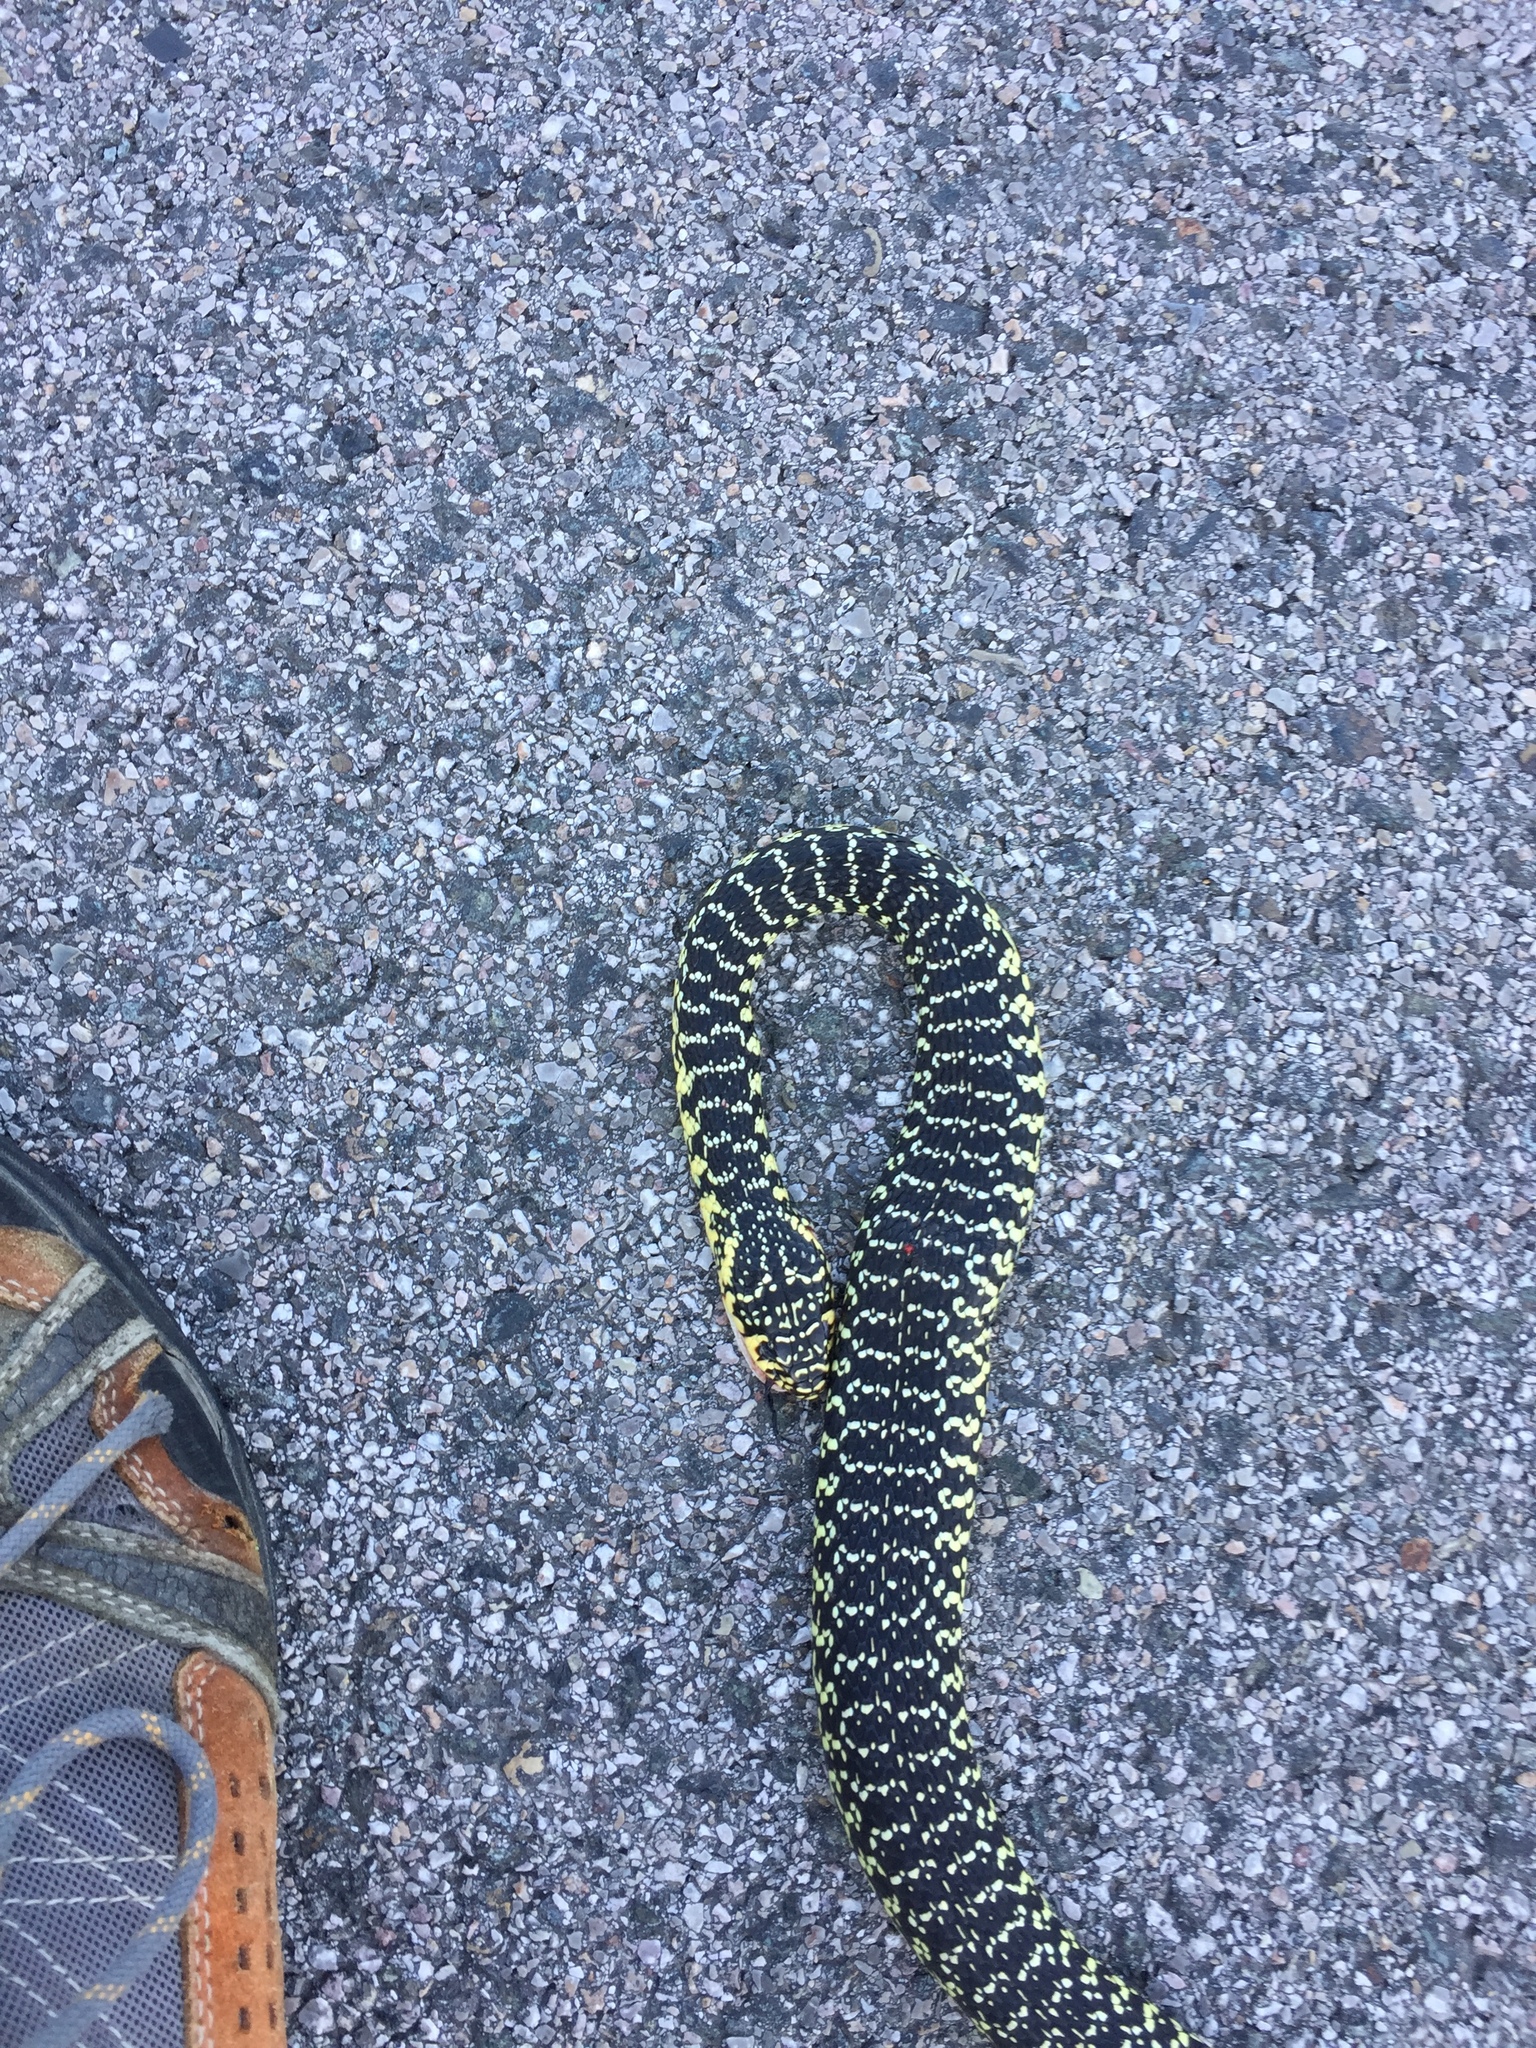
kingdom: Animalia
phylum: Chordata
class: Squamata
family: Colubridae
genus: Hierophis
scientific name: Hierophis viridiflavus
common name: Green whip snake
